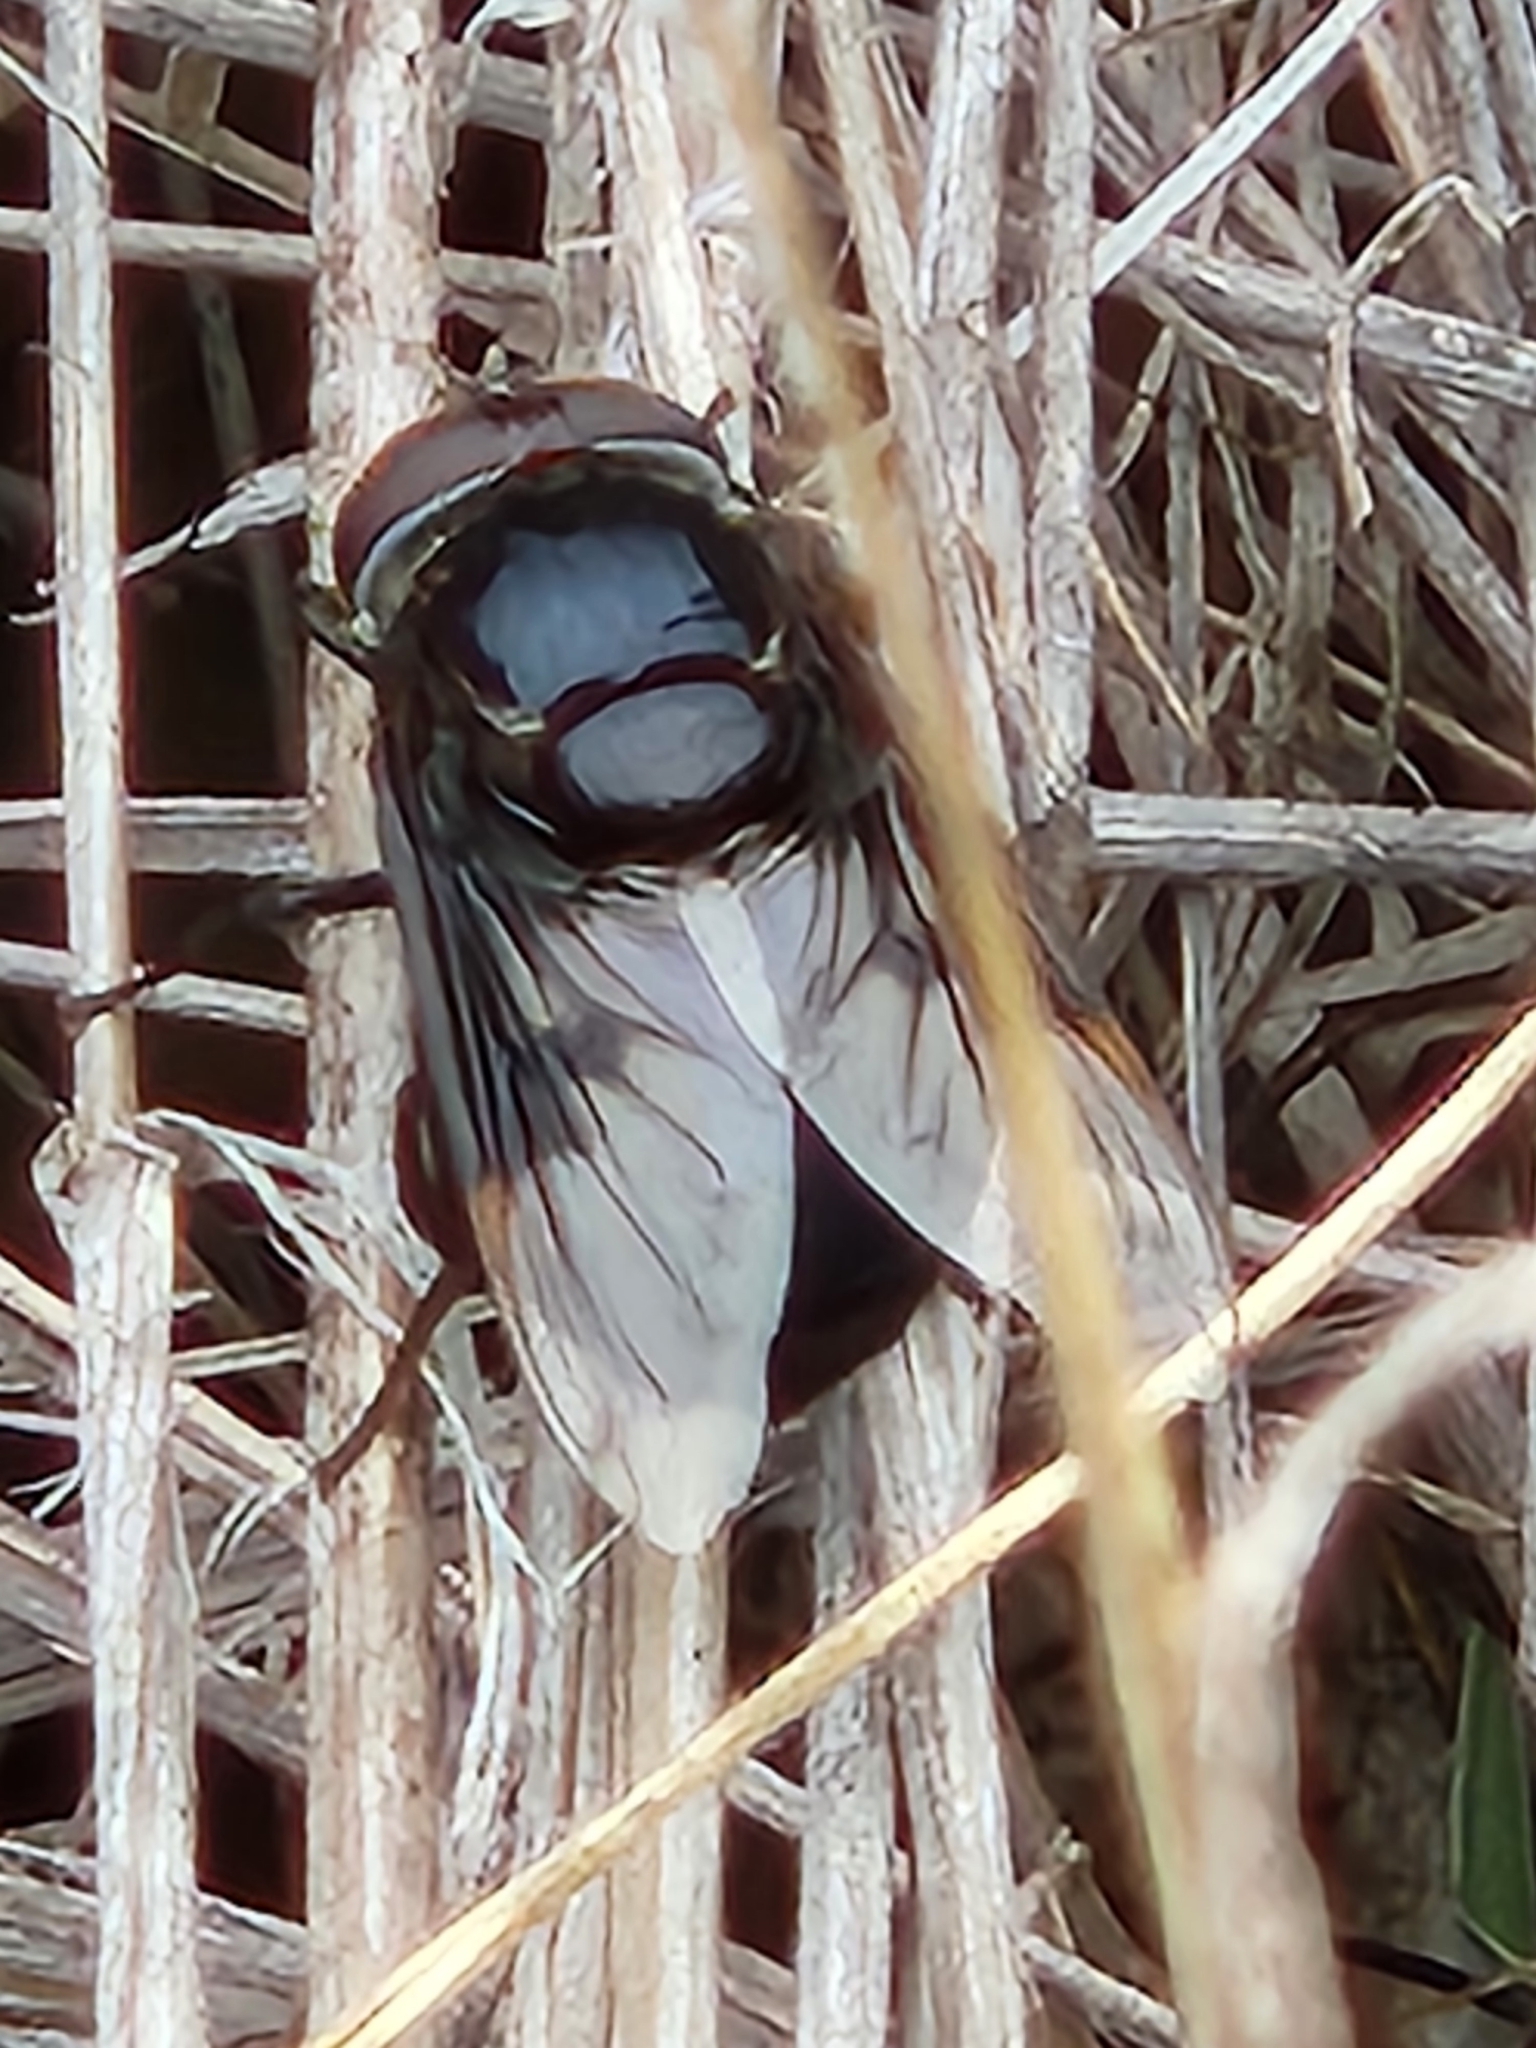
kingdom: Animalia
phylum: Arthropoda
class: Insecta
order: Diptera
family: Syrphidae
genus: Copestylum
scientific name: Copestylum mexicanum
